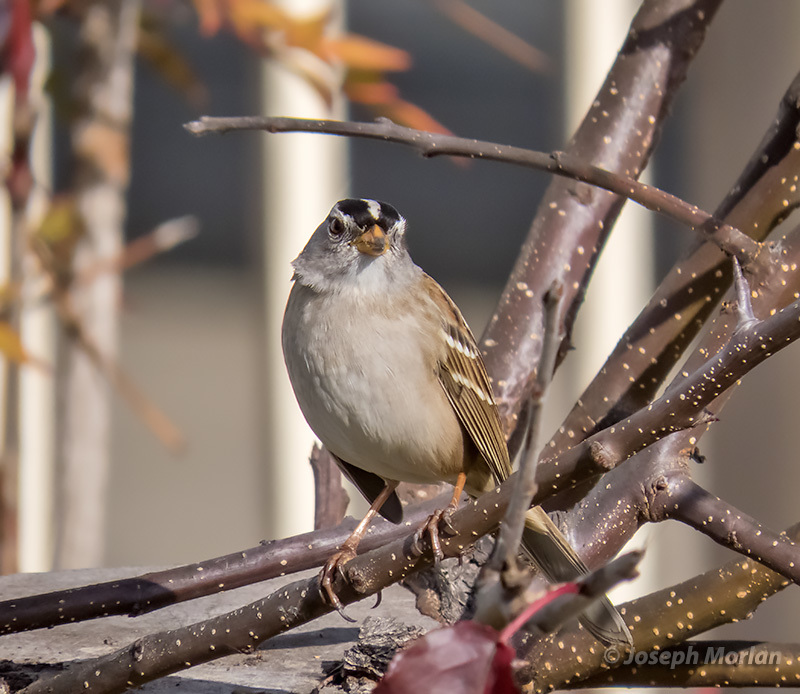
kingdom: Animalia
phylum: Chordata
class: Aves
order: Passeriformes
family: Passerellidae
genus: Zonotrichia
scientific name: Zonotrichia leucophrys
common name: White-crowned sparrow
